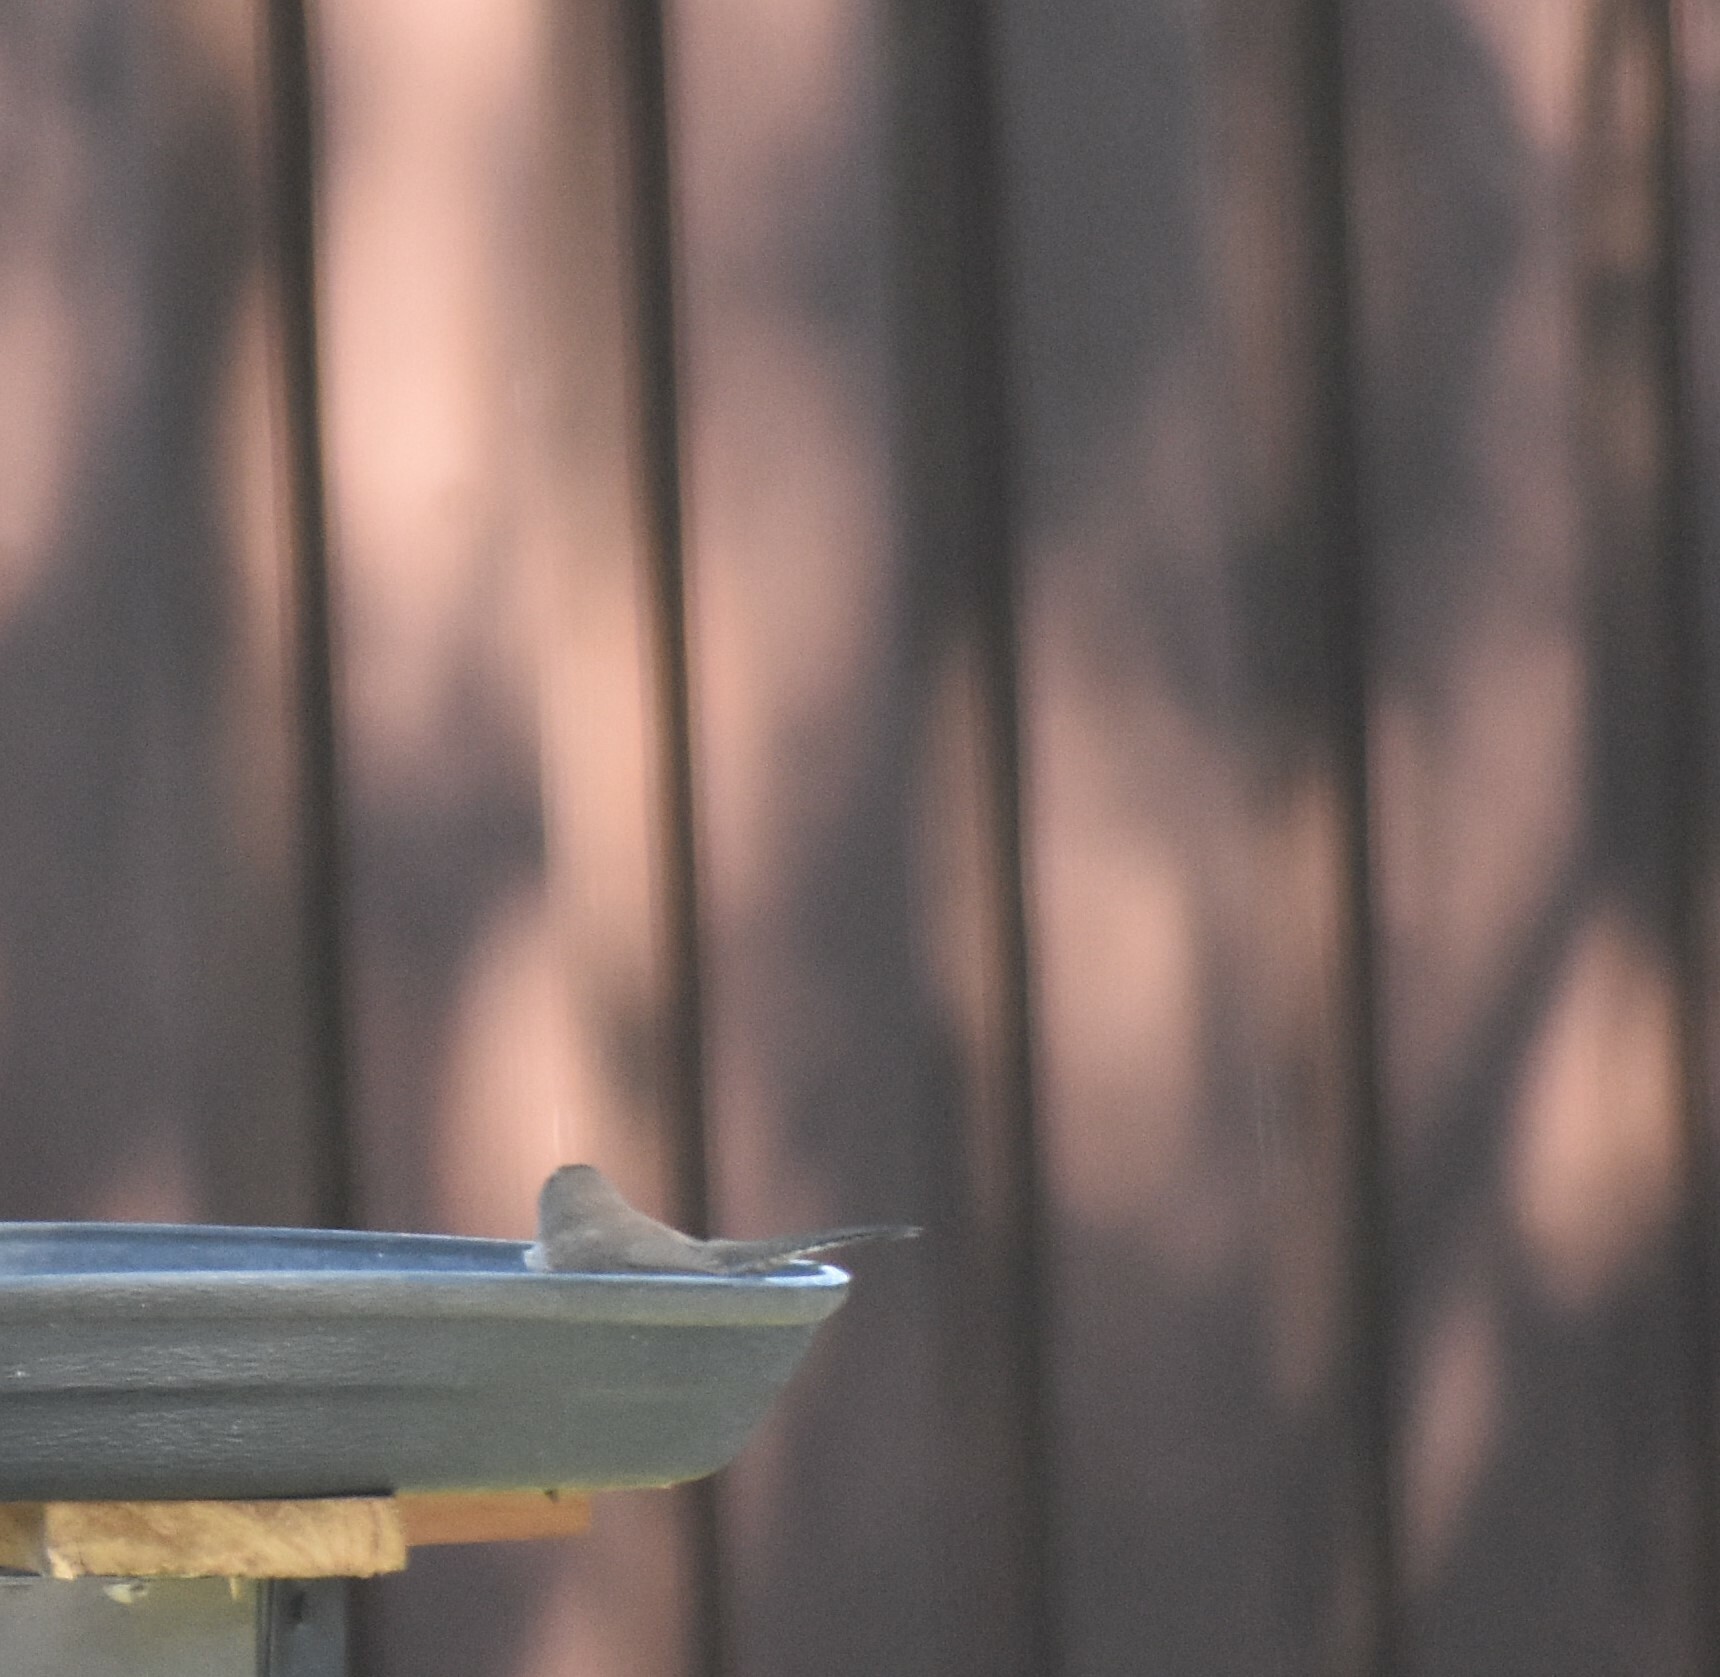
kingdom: Animalia
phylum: Chordata
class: Aves
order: Passeriformes
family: Troglodytidae
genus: Thryomanes
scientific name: Thryomanes bewickii
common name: Bewick's wren
